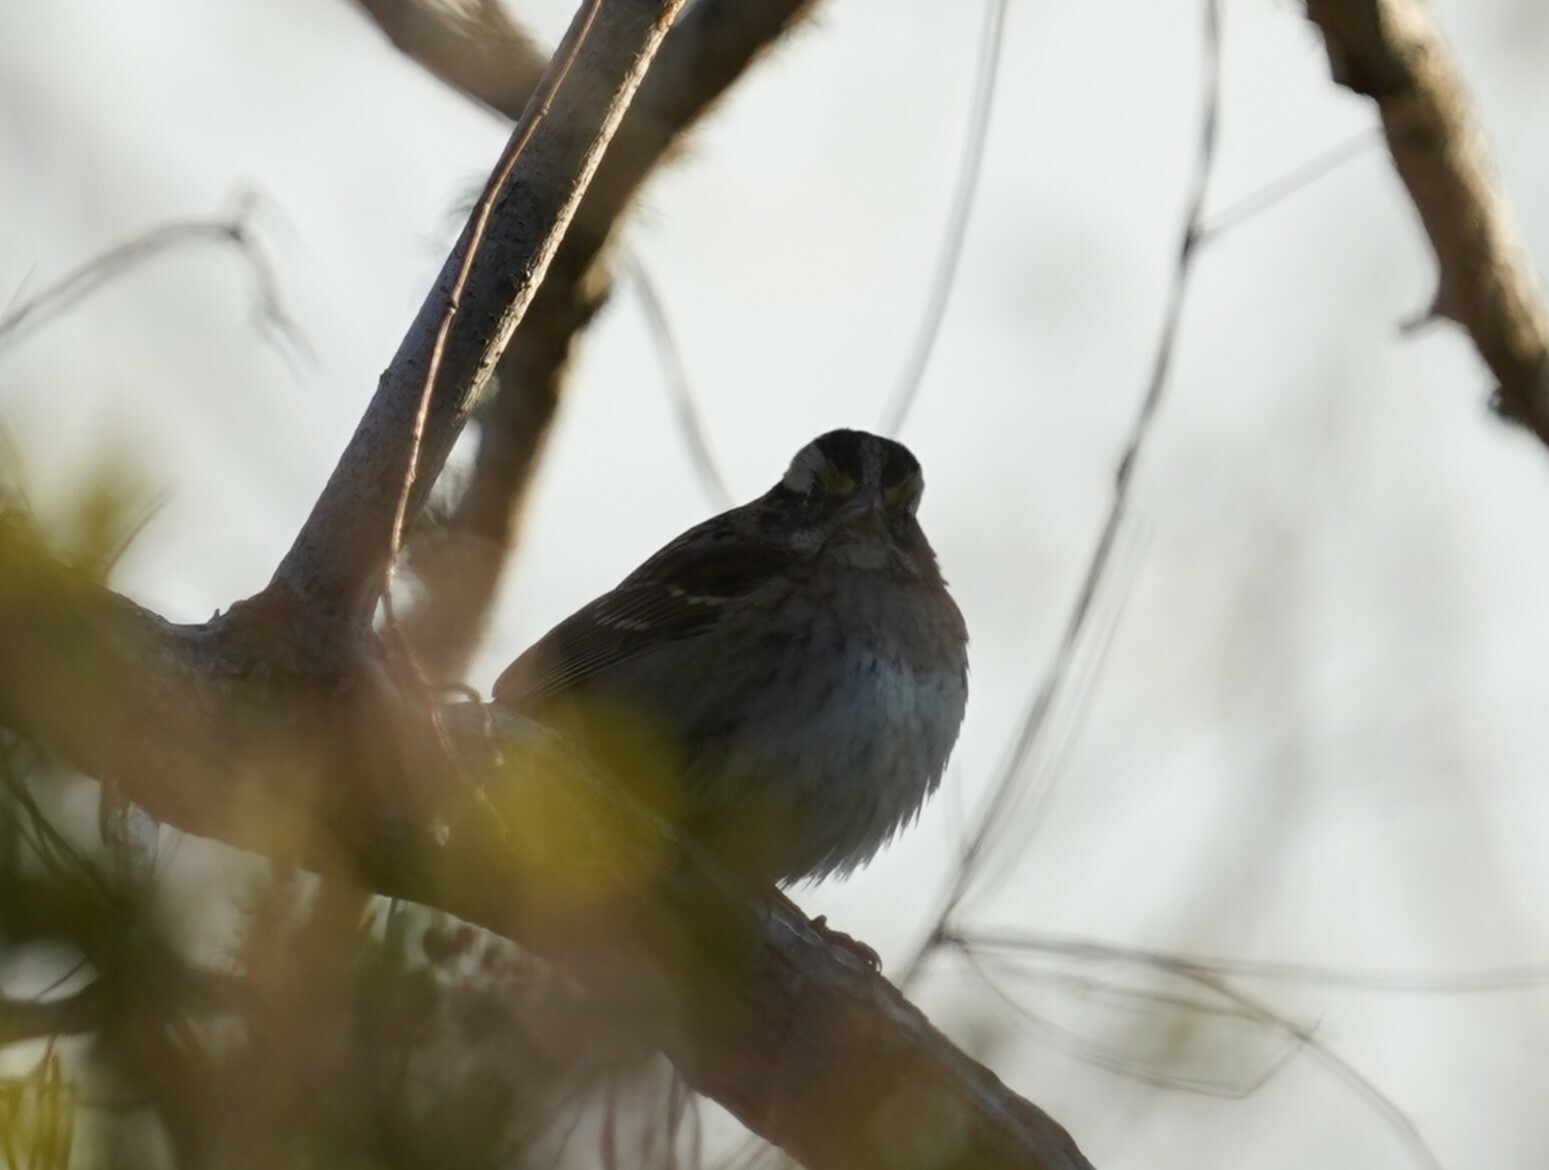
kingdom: Animalia
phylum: Chordata
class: Aves
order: Passeriformes
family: Passerellidae
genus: Zonotrichia
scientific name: Zonotrichia albicollis
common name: White-throated sparrow
